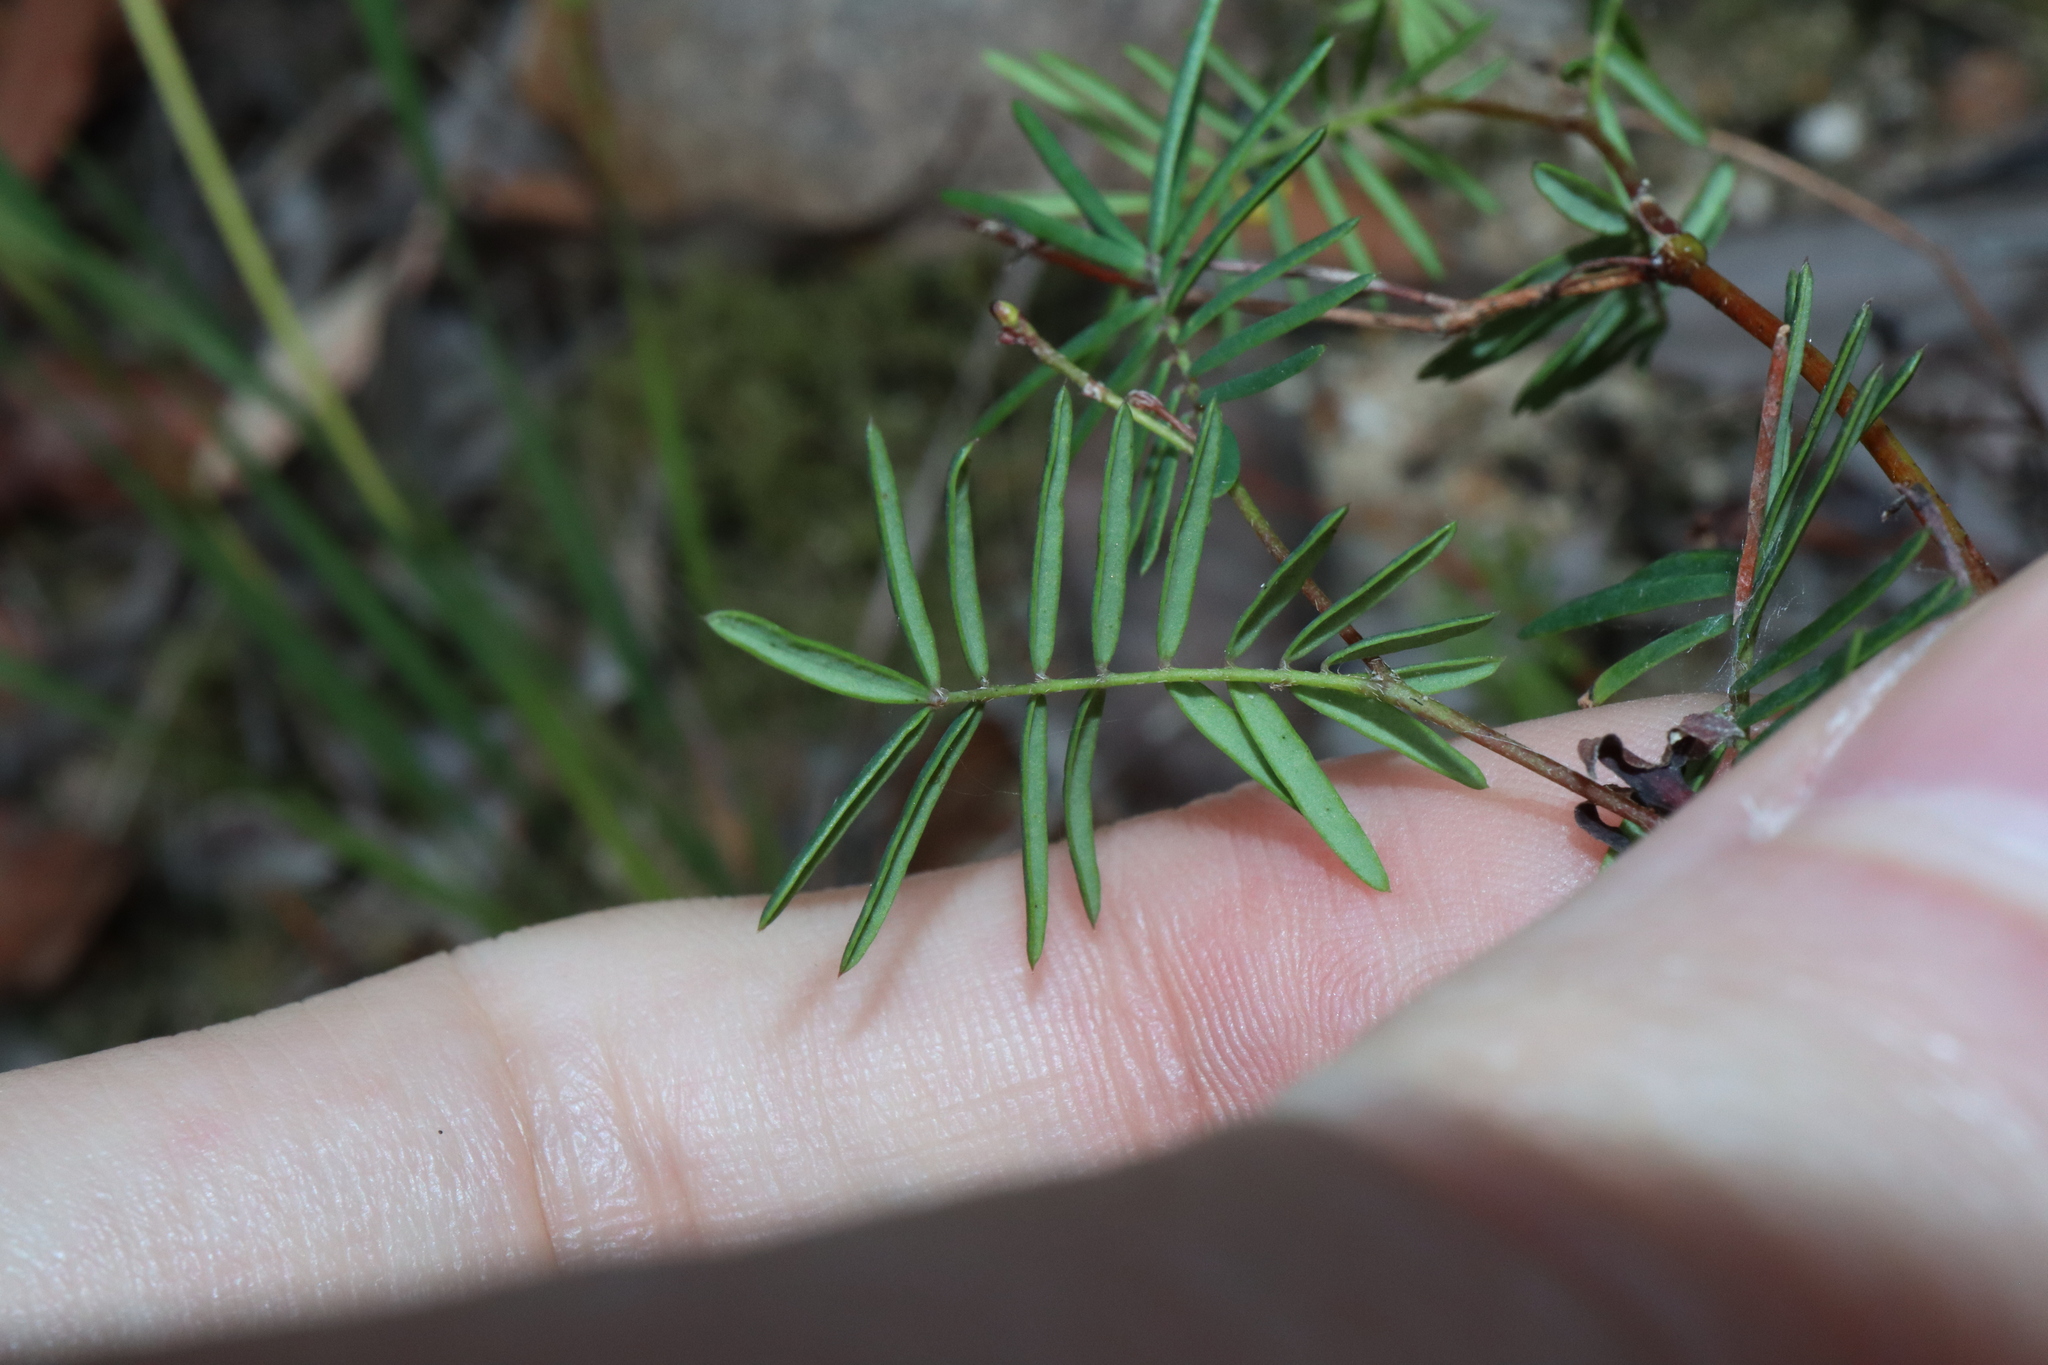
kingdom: Plantae
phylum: Tracheophyta
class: Magnoliopsida
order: Fabales
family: Fabaceae
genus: Gompholobium
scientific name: Gompholobium pinnatum
